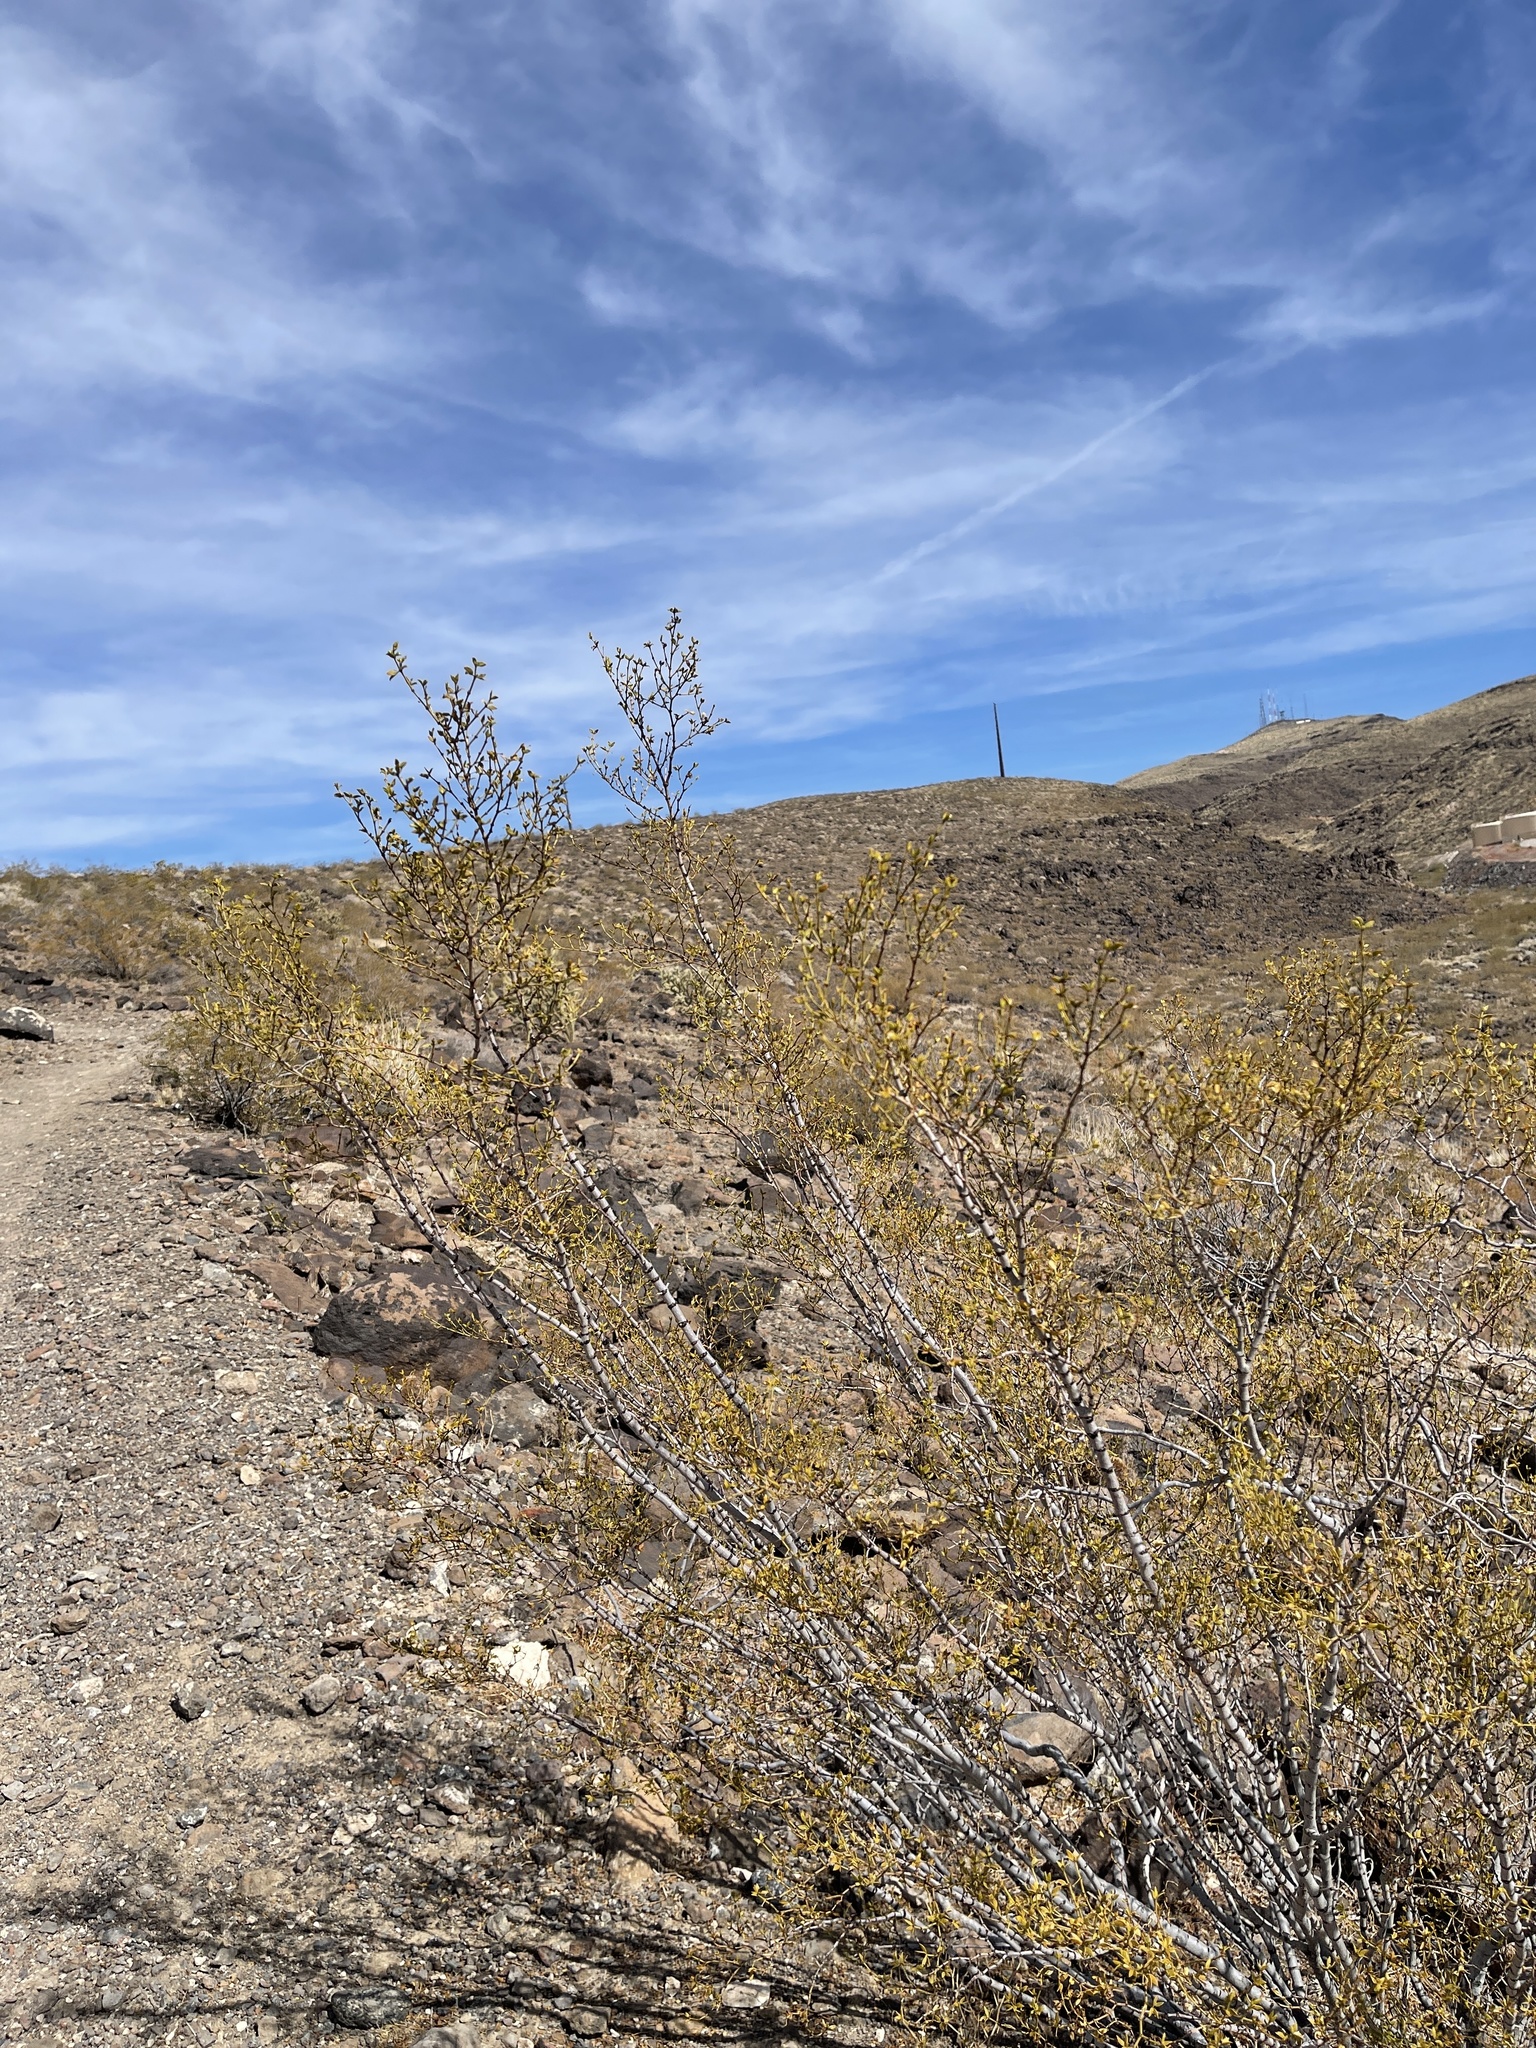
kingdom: Plantae
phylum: Tracheophyta
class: Magnoliopsida
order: Zygophyllales
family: Zygophyllaceae
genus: Larrea
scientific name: Larrea tridentata
